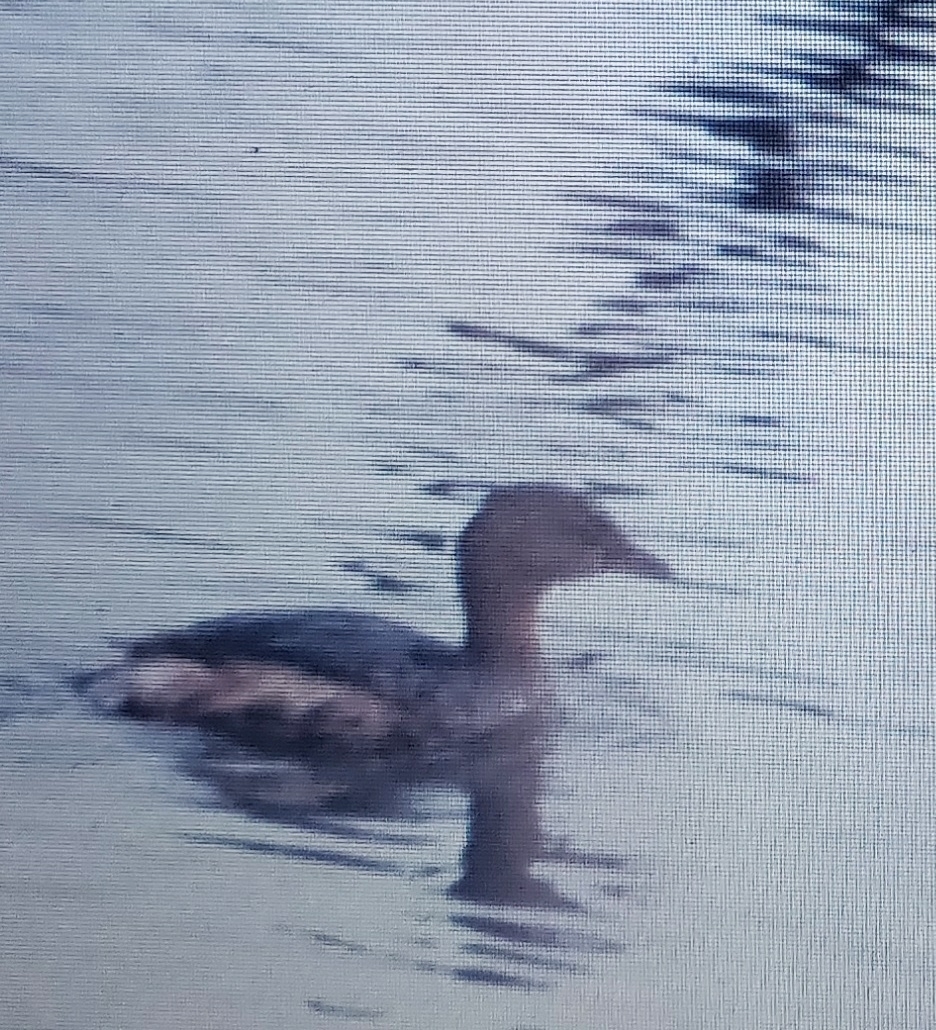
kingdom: Animalia
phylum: Chordata
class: Aves
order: Podicipediformes
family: Podicipedidae
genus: Podilymbus
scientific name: Podilymbus podiceps
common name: Pied-billed grebe
